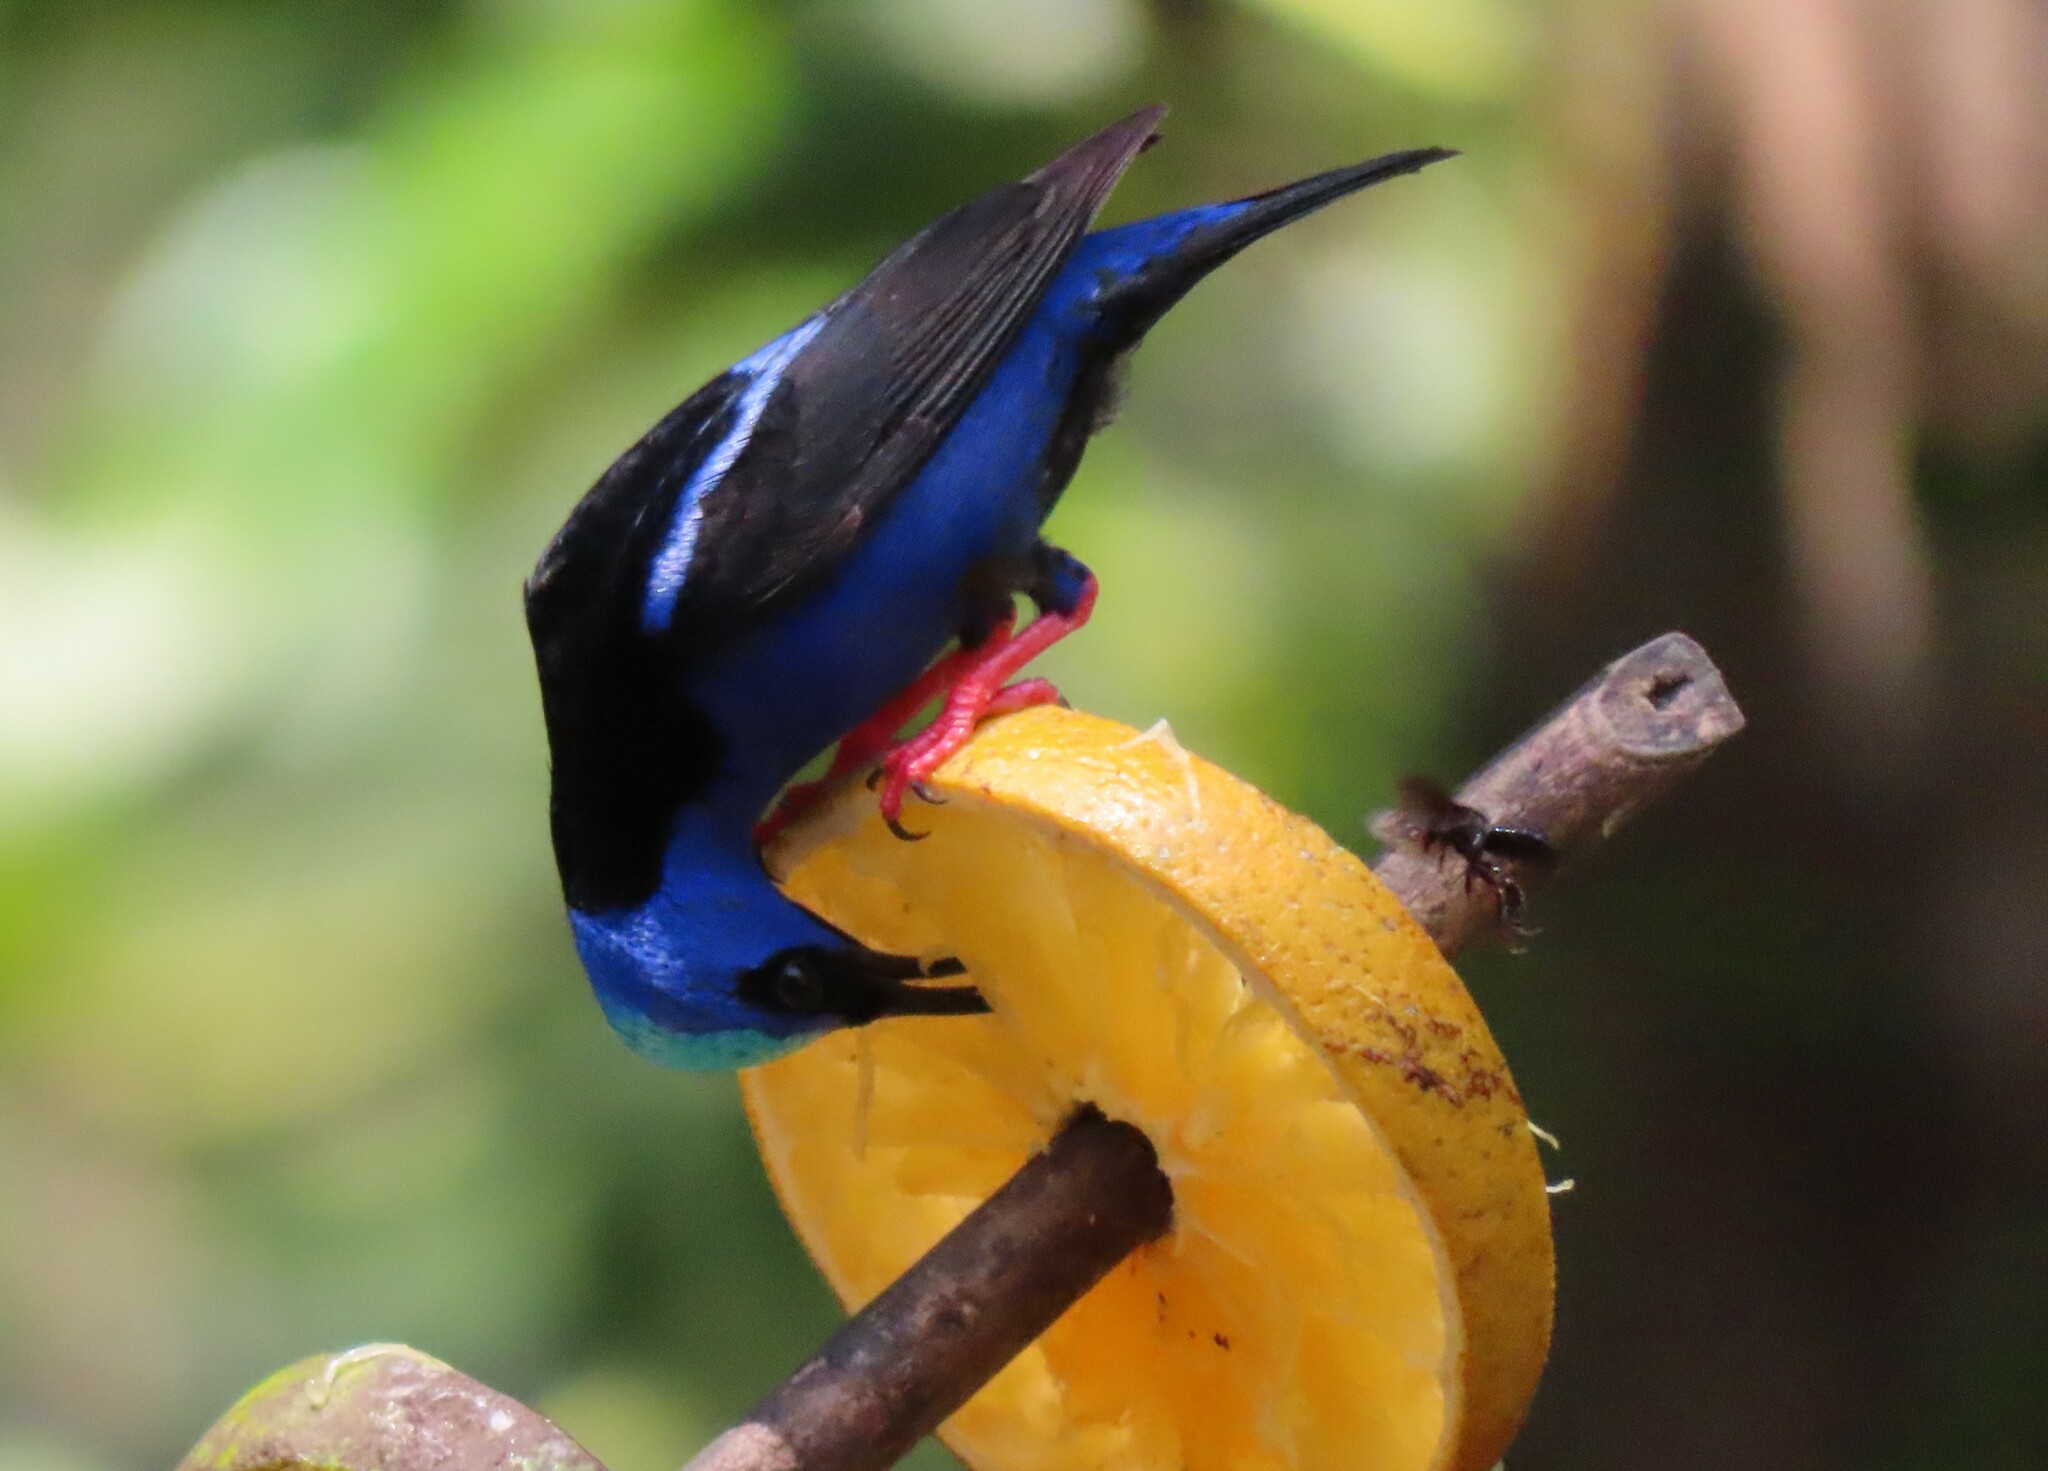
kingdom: Animalia
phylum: Chordata
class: Aves
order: Passeriformes
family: Thraupidae
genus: Cyanerpes
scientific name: Cyanerpes cyaneus
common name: Red-legged honeycreeper
